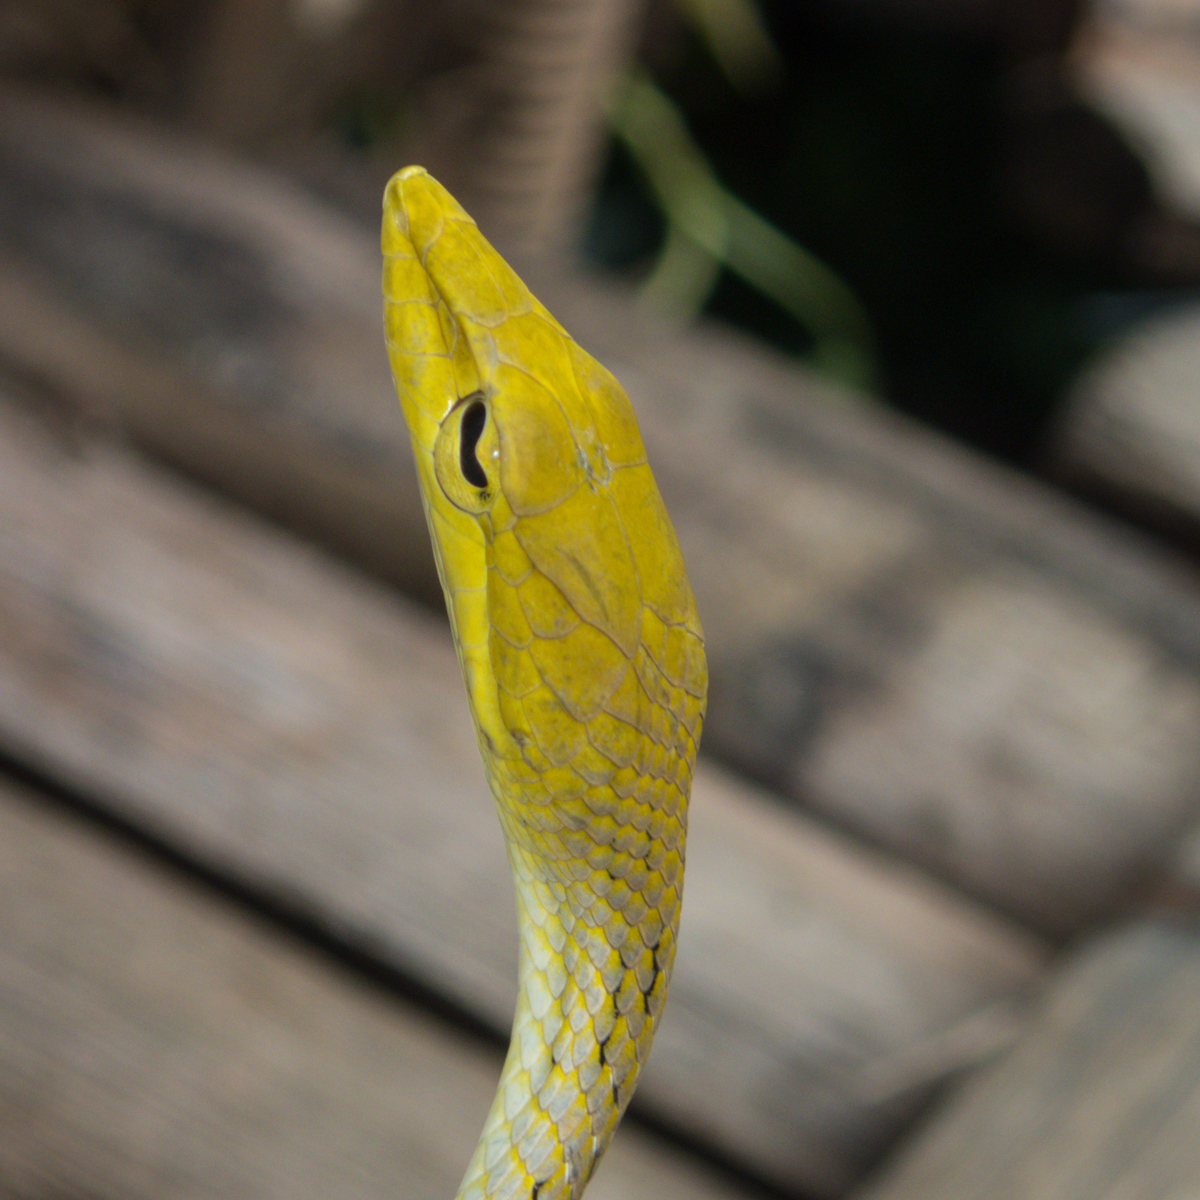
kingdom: Animalia
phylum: Chordata
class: Squamata
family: Colubridae
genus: Ahaetulla
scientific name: Ahaetulla prasina
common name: Oriental whip snake
